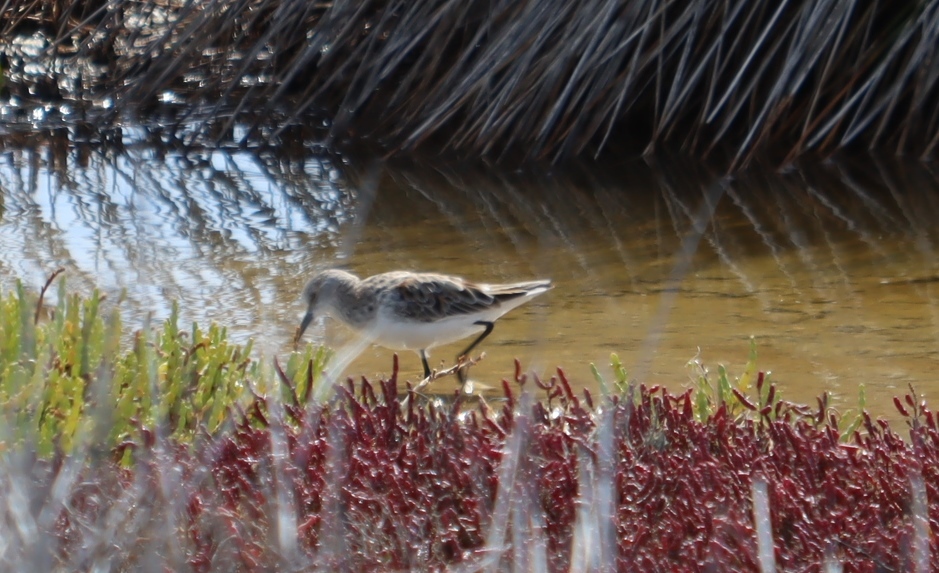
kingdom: Animalia
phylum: Chordata
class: Aves
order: Charadriiformes
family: Scolopacidae
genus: Calidris
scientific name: Calidris minuta
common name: Little stint
